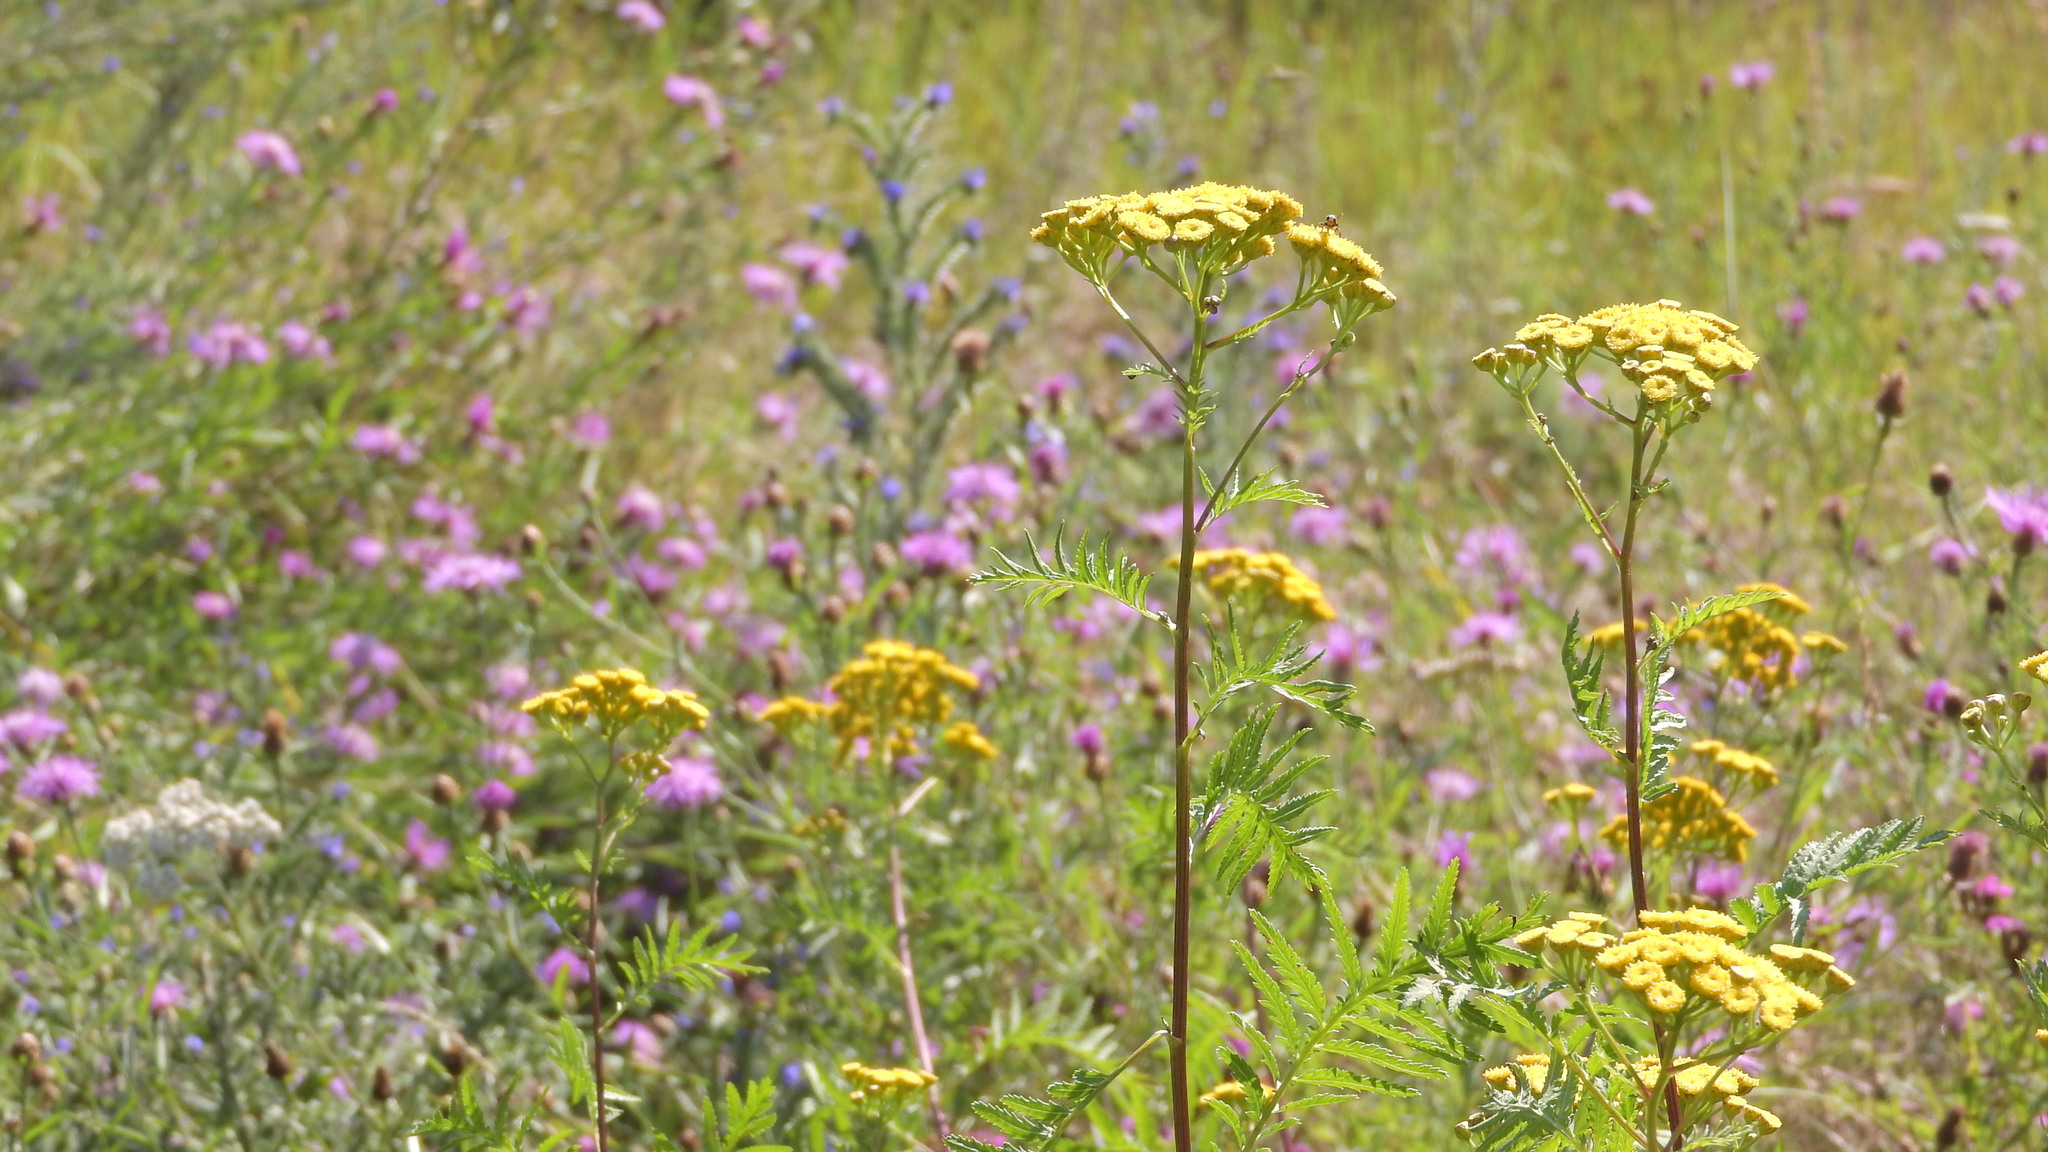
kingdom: Plantae
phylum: Tracheophyta
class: Magnoliopsida
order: Asterales
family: Asteraceae
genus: Tanacetum
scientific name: Tanacetum vulgare
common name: Common tansy
